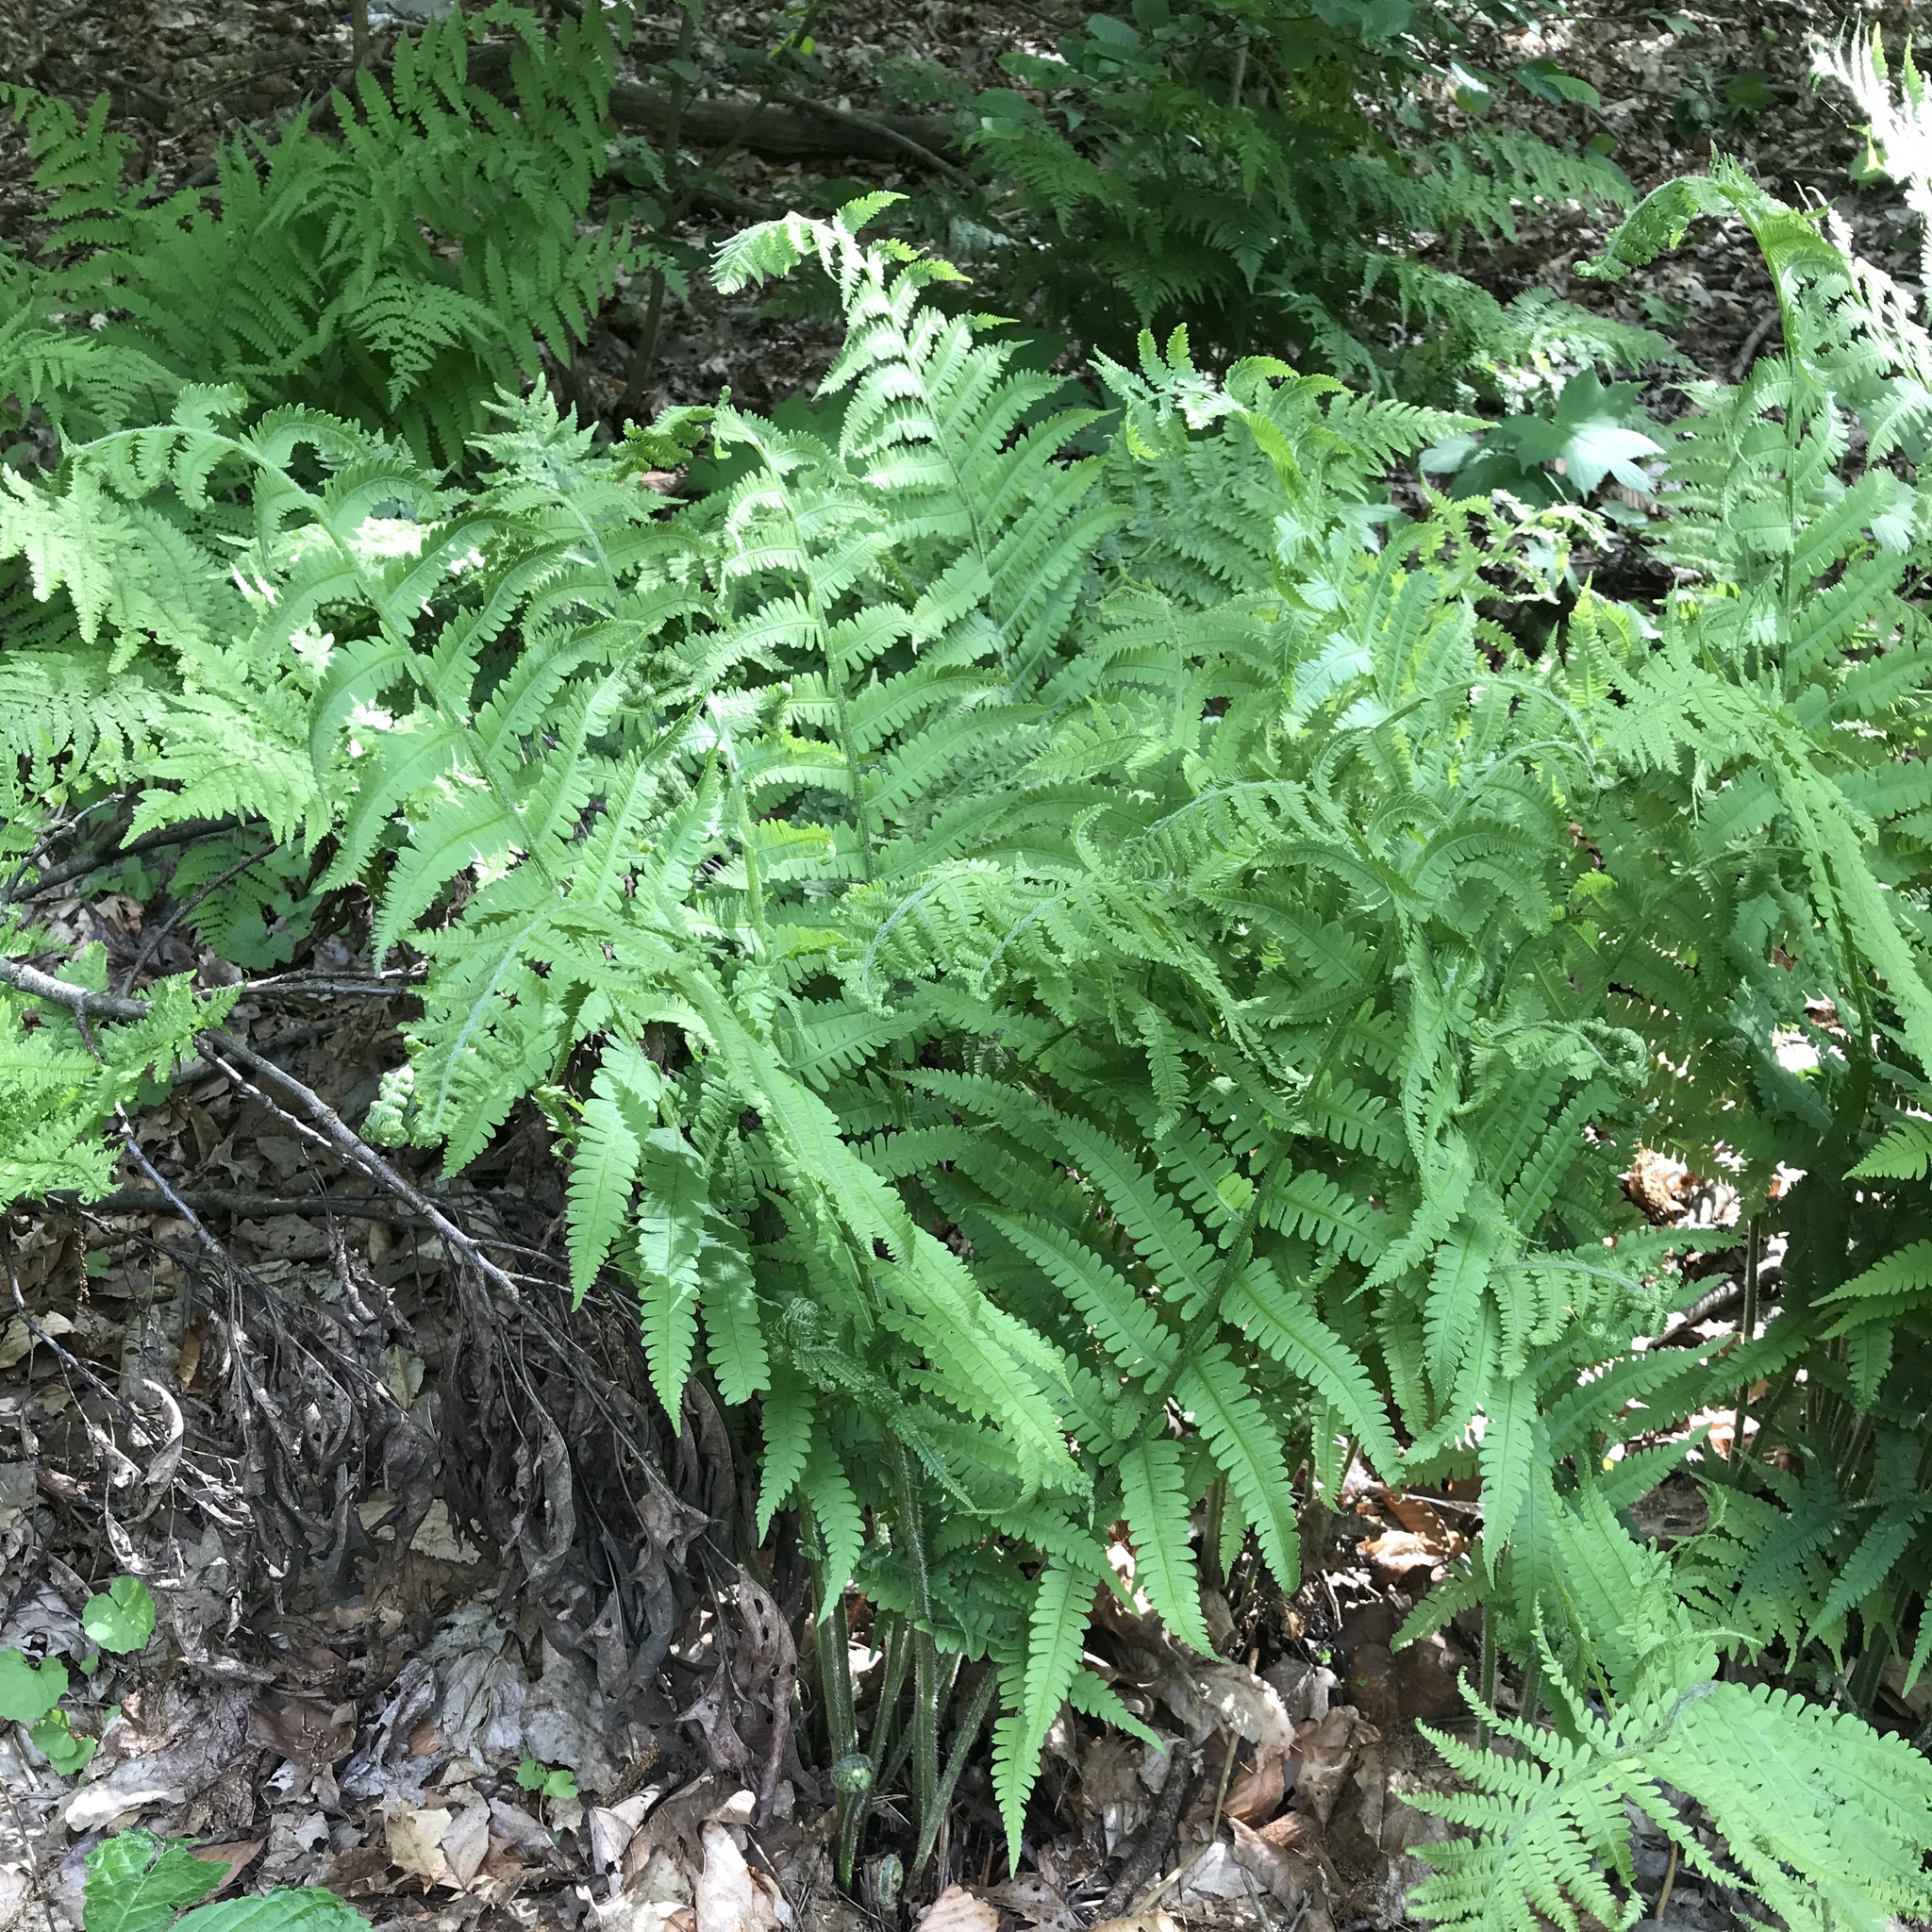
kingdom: Plantae
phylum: Tracheophyta
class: Polypodiopsida
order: Polypodiales
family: Athyriaceae
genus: Deparia
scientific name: Deparia acrostichoides
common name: Silver false spleenwort
